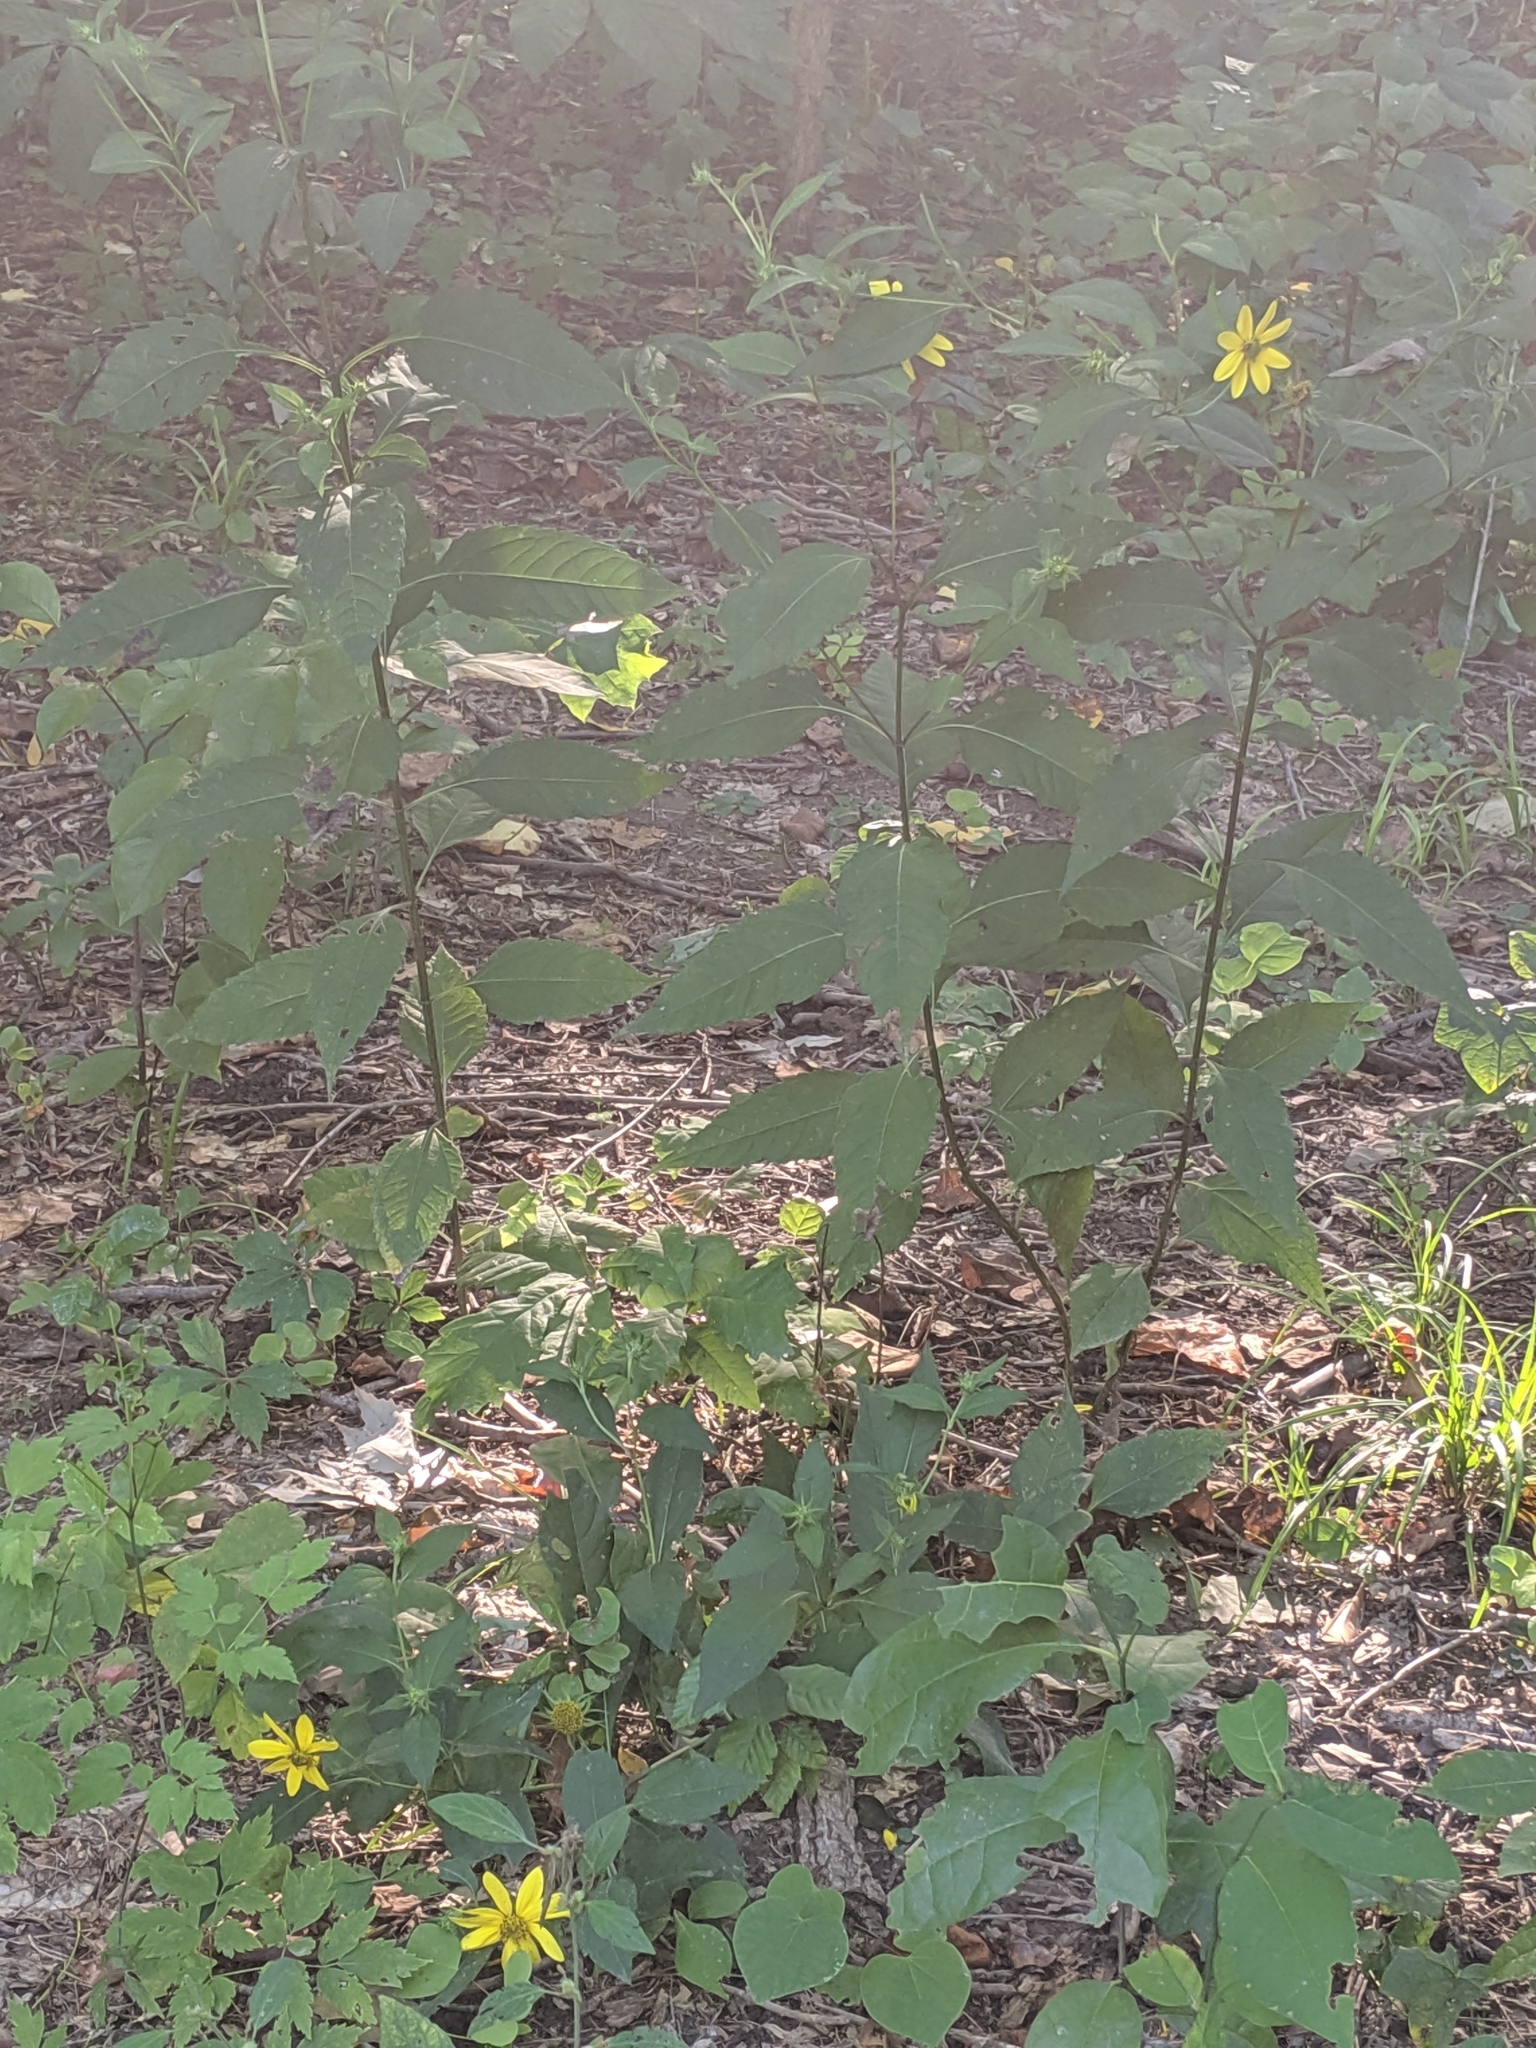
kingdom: Plantae
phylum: Tracheophyta
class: Magnoliopsida
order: Asterales
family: Asteraceae
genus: Helianthus
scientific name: Helianthus tuberosus
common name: Jerusalem artichoke
